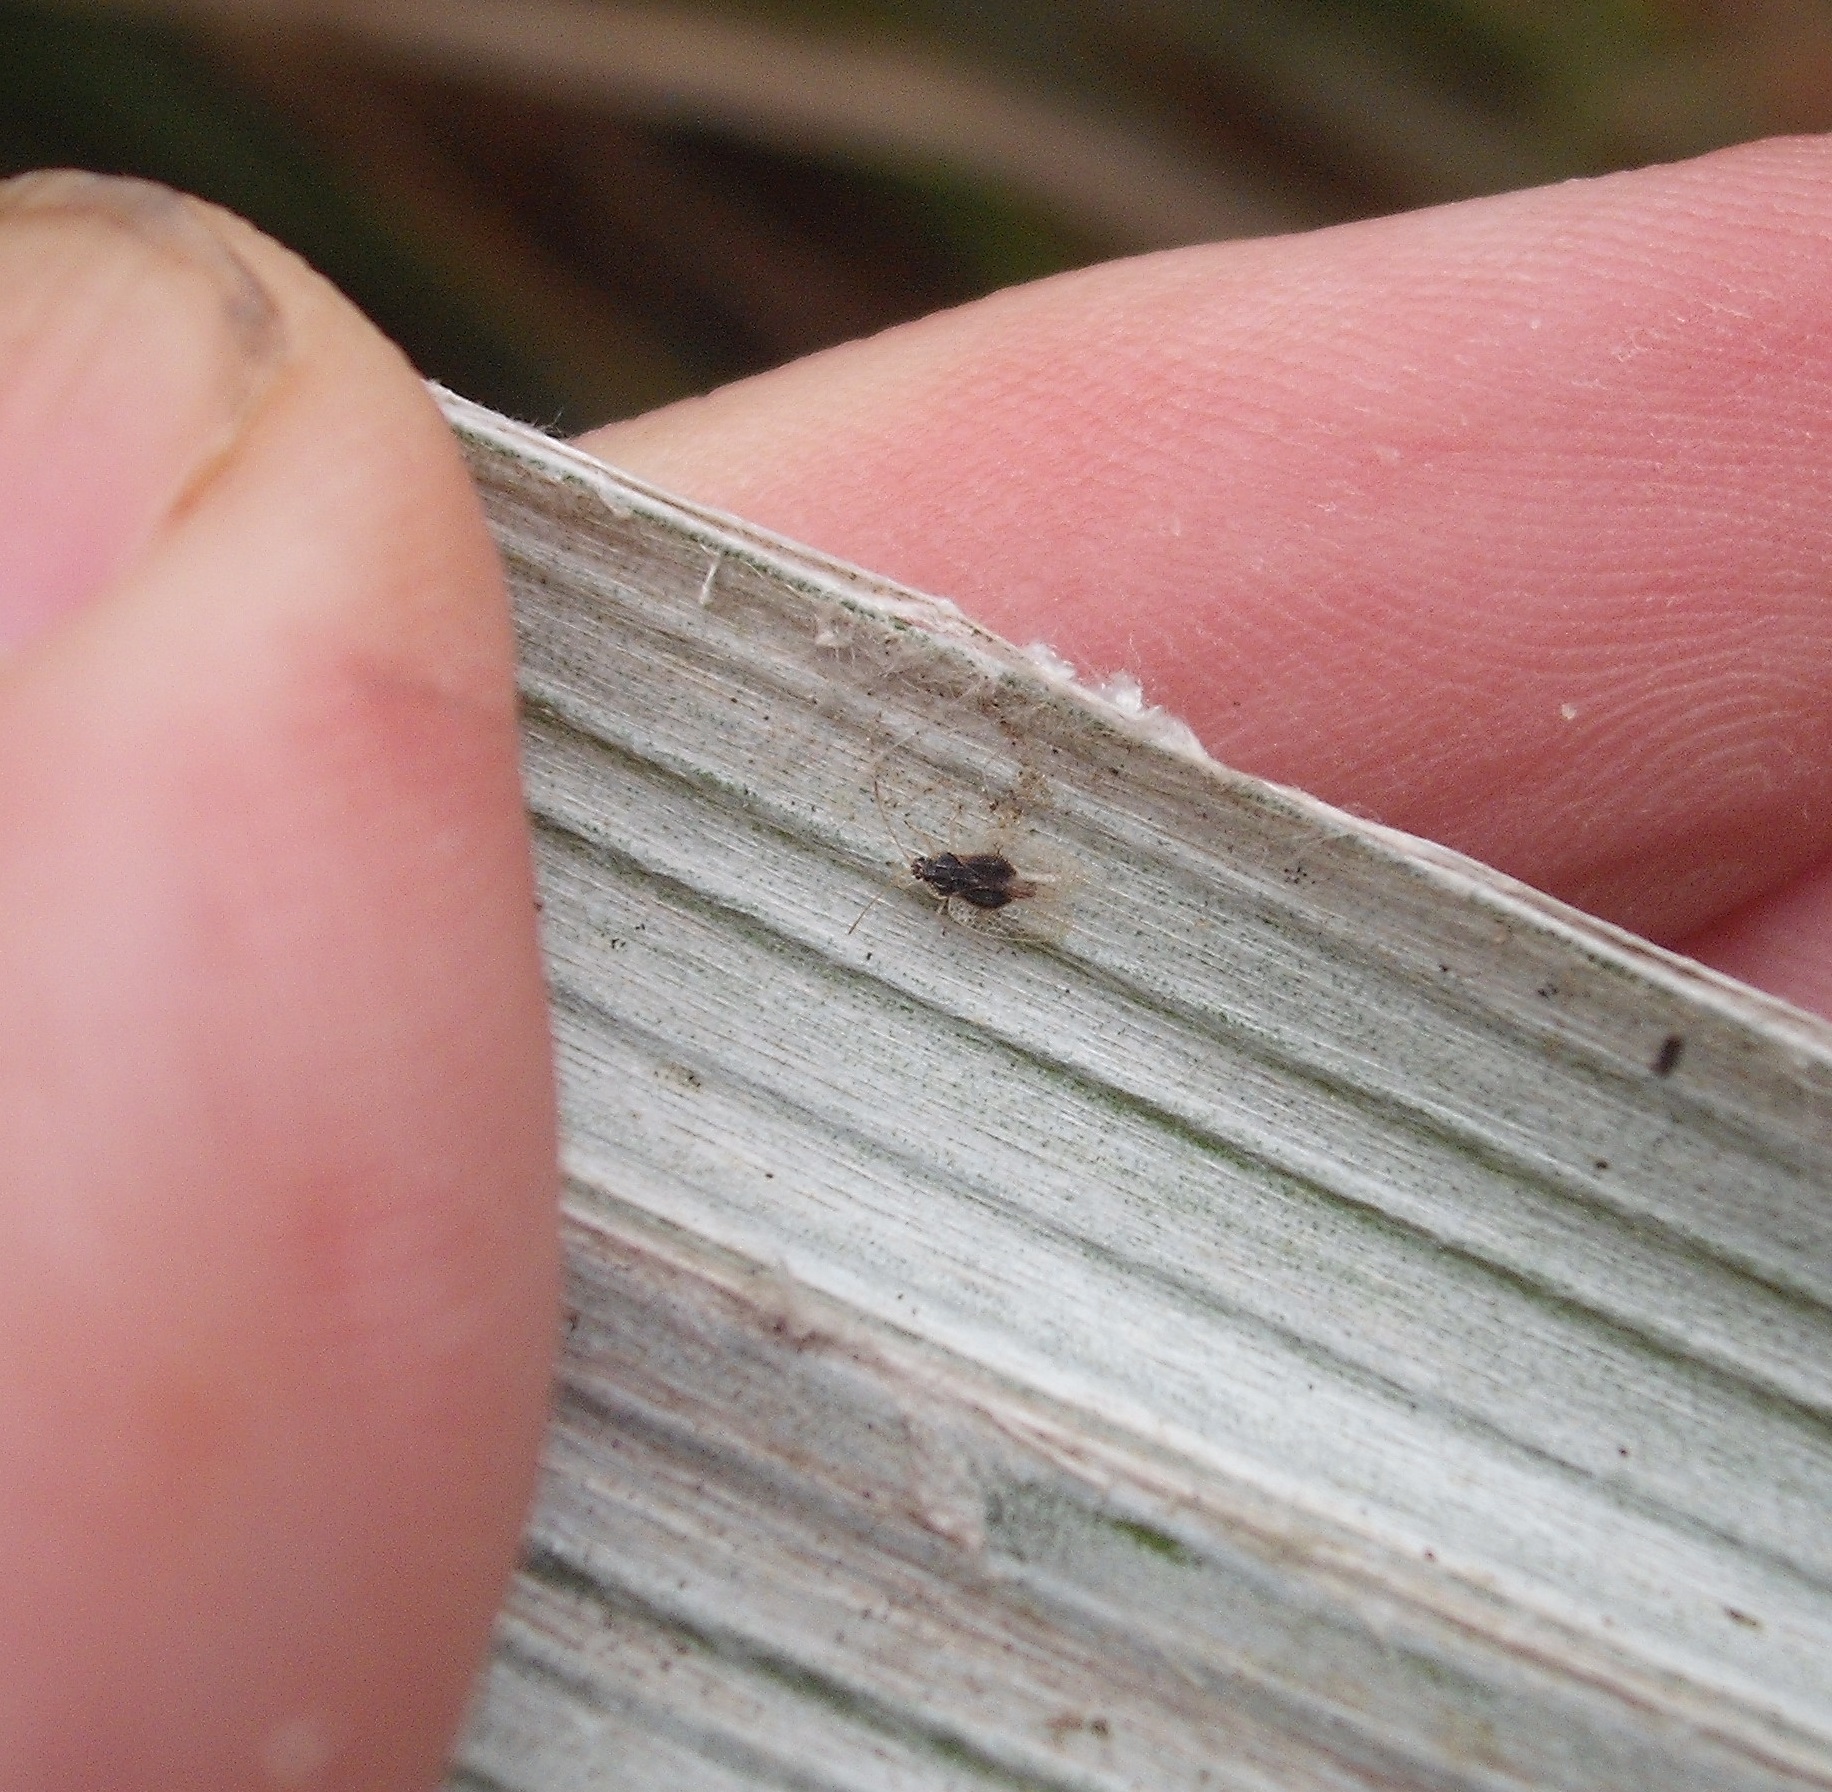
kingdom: Animalia
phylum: Arthropoda
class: Insecta
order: Hemiptera
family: Tingidae
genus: Tanybyrsa
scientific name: Tanybyrsa cumberi
